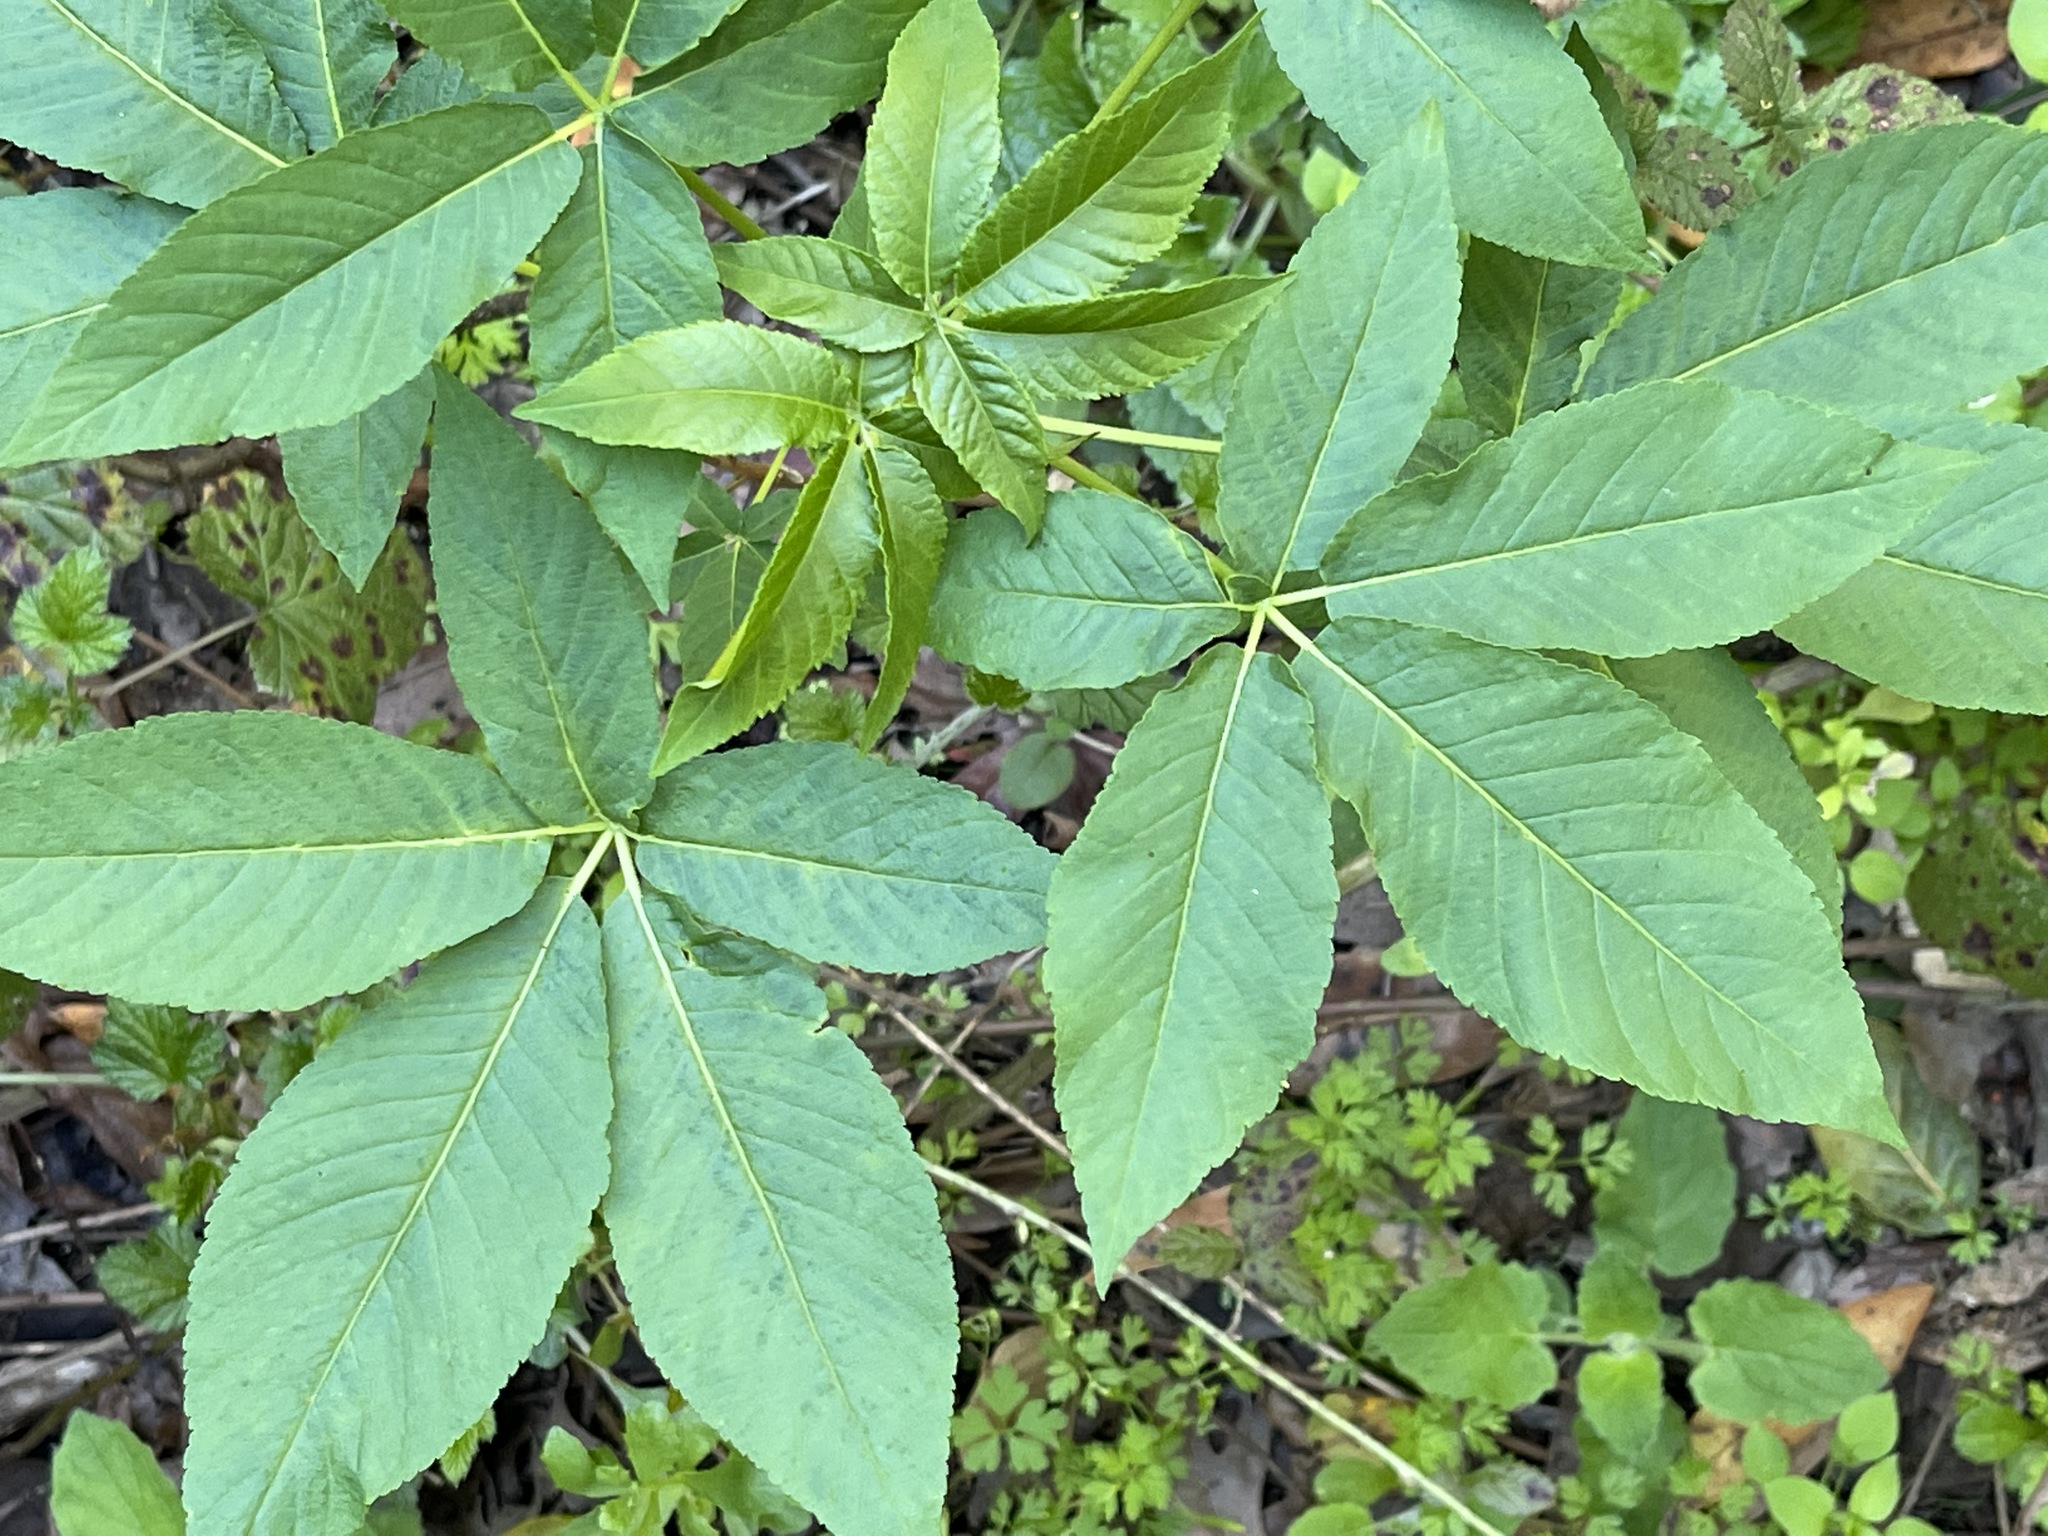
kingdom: Plantae
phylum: Tracheophyta
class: Magnoliopsida
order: Sapindales
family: Sapindaceae
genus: Aesculus
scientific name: Aesculus californica
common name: California buckeye
